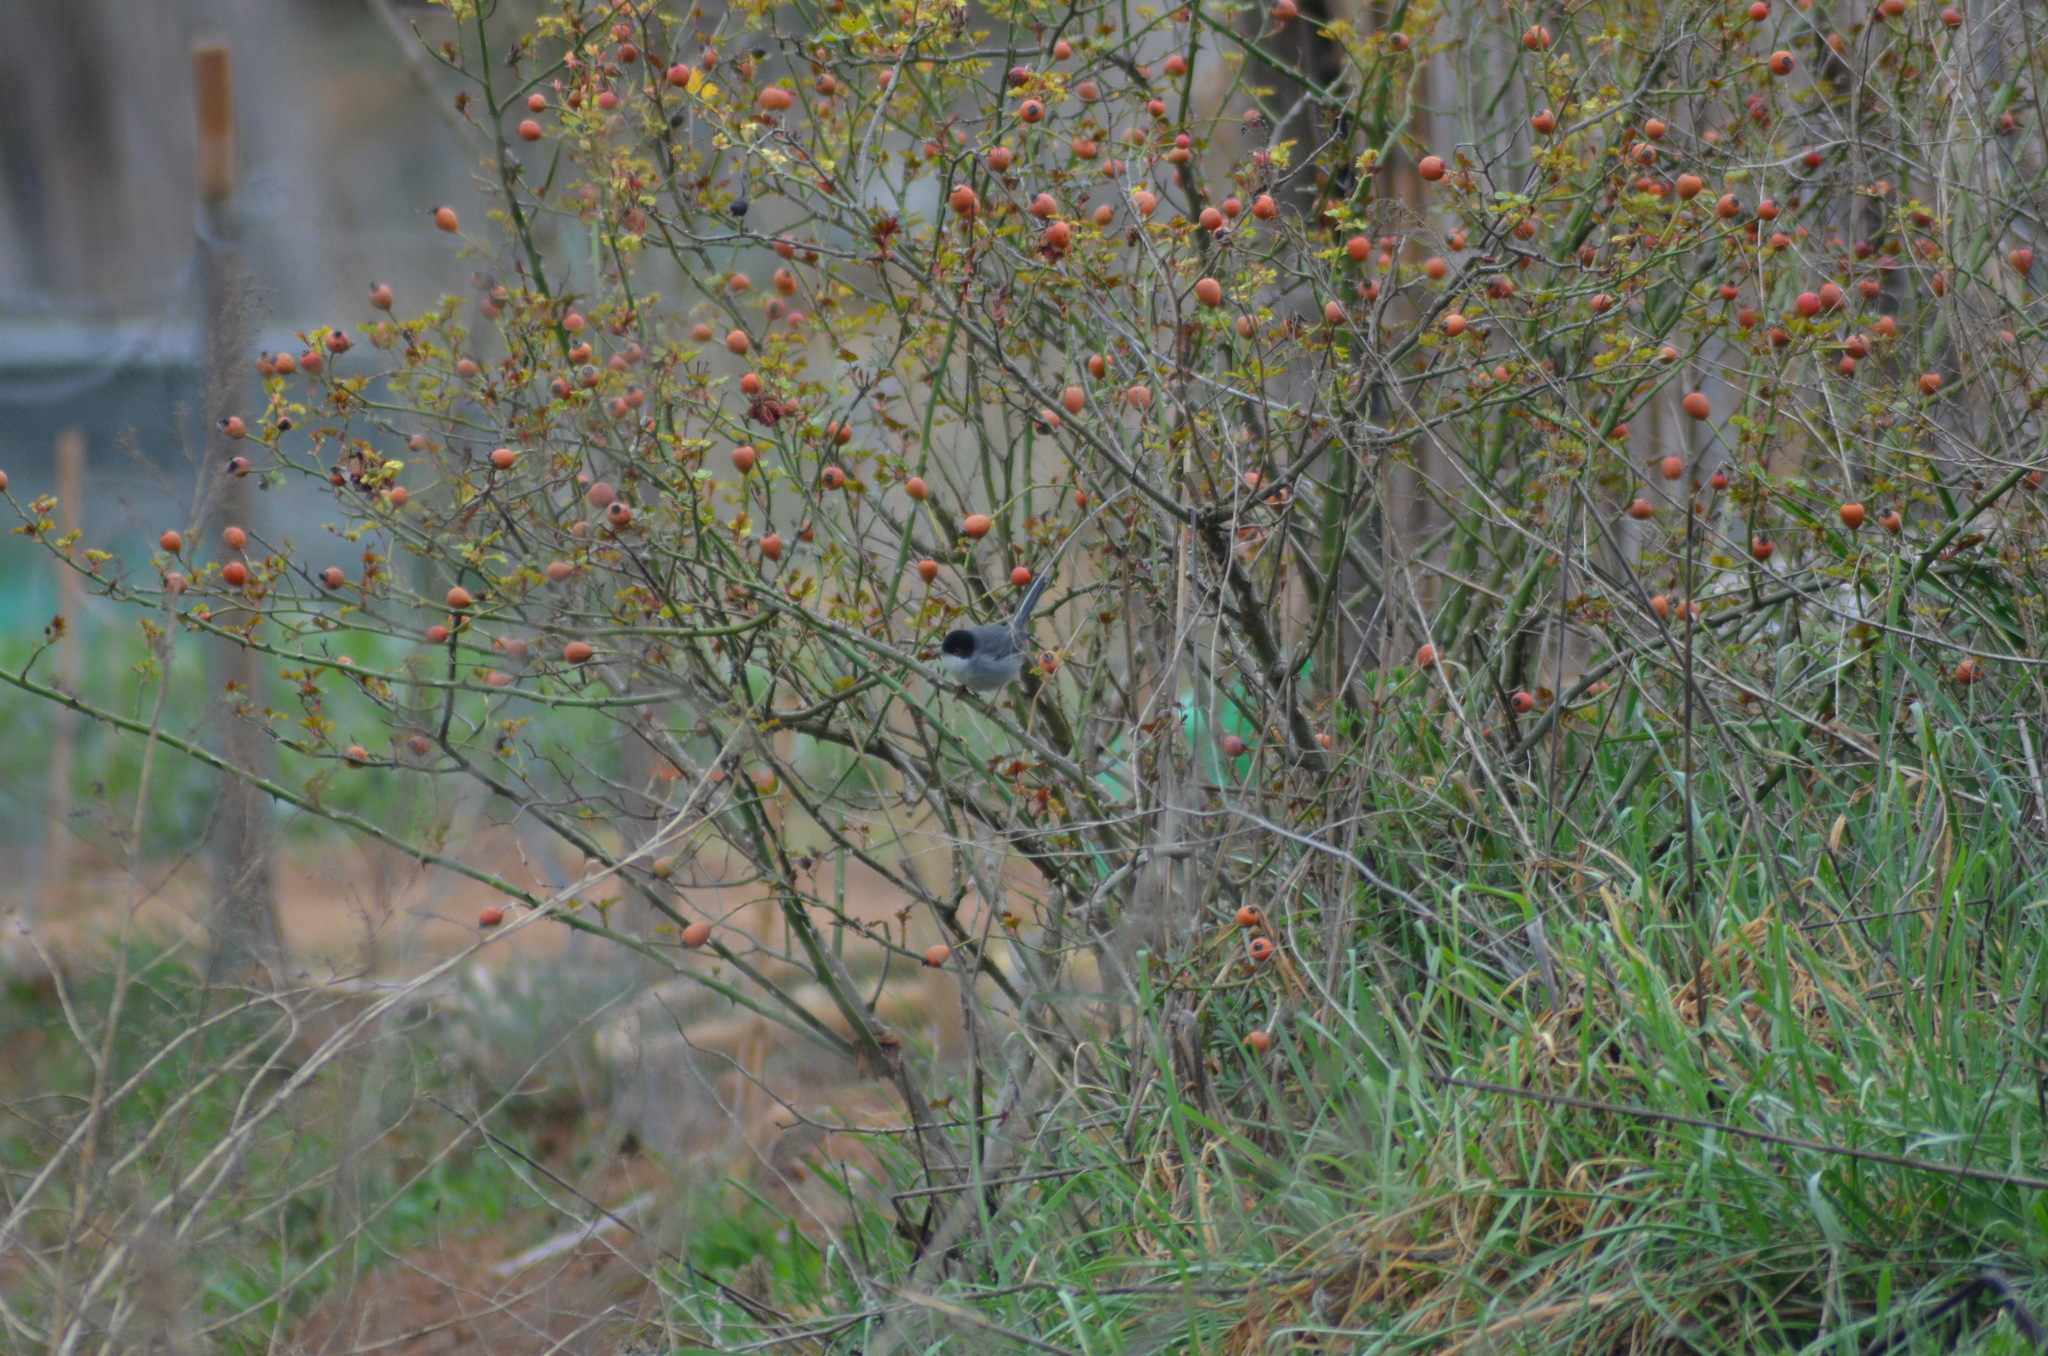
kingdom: Animalia
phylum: Chordata
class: Aves
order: Passeriformes
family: Sylviidae
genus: Curruca
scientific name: Curruca melanocephala
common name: Sardinian warbler
